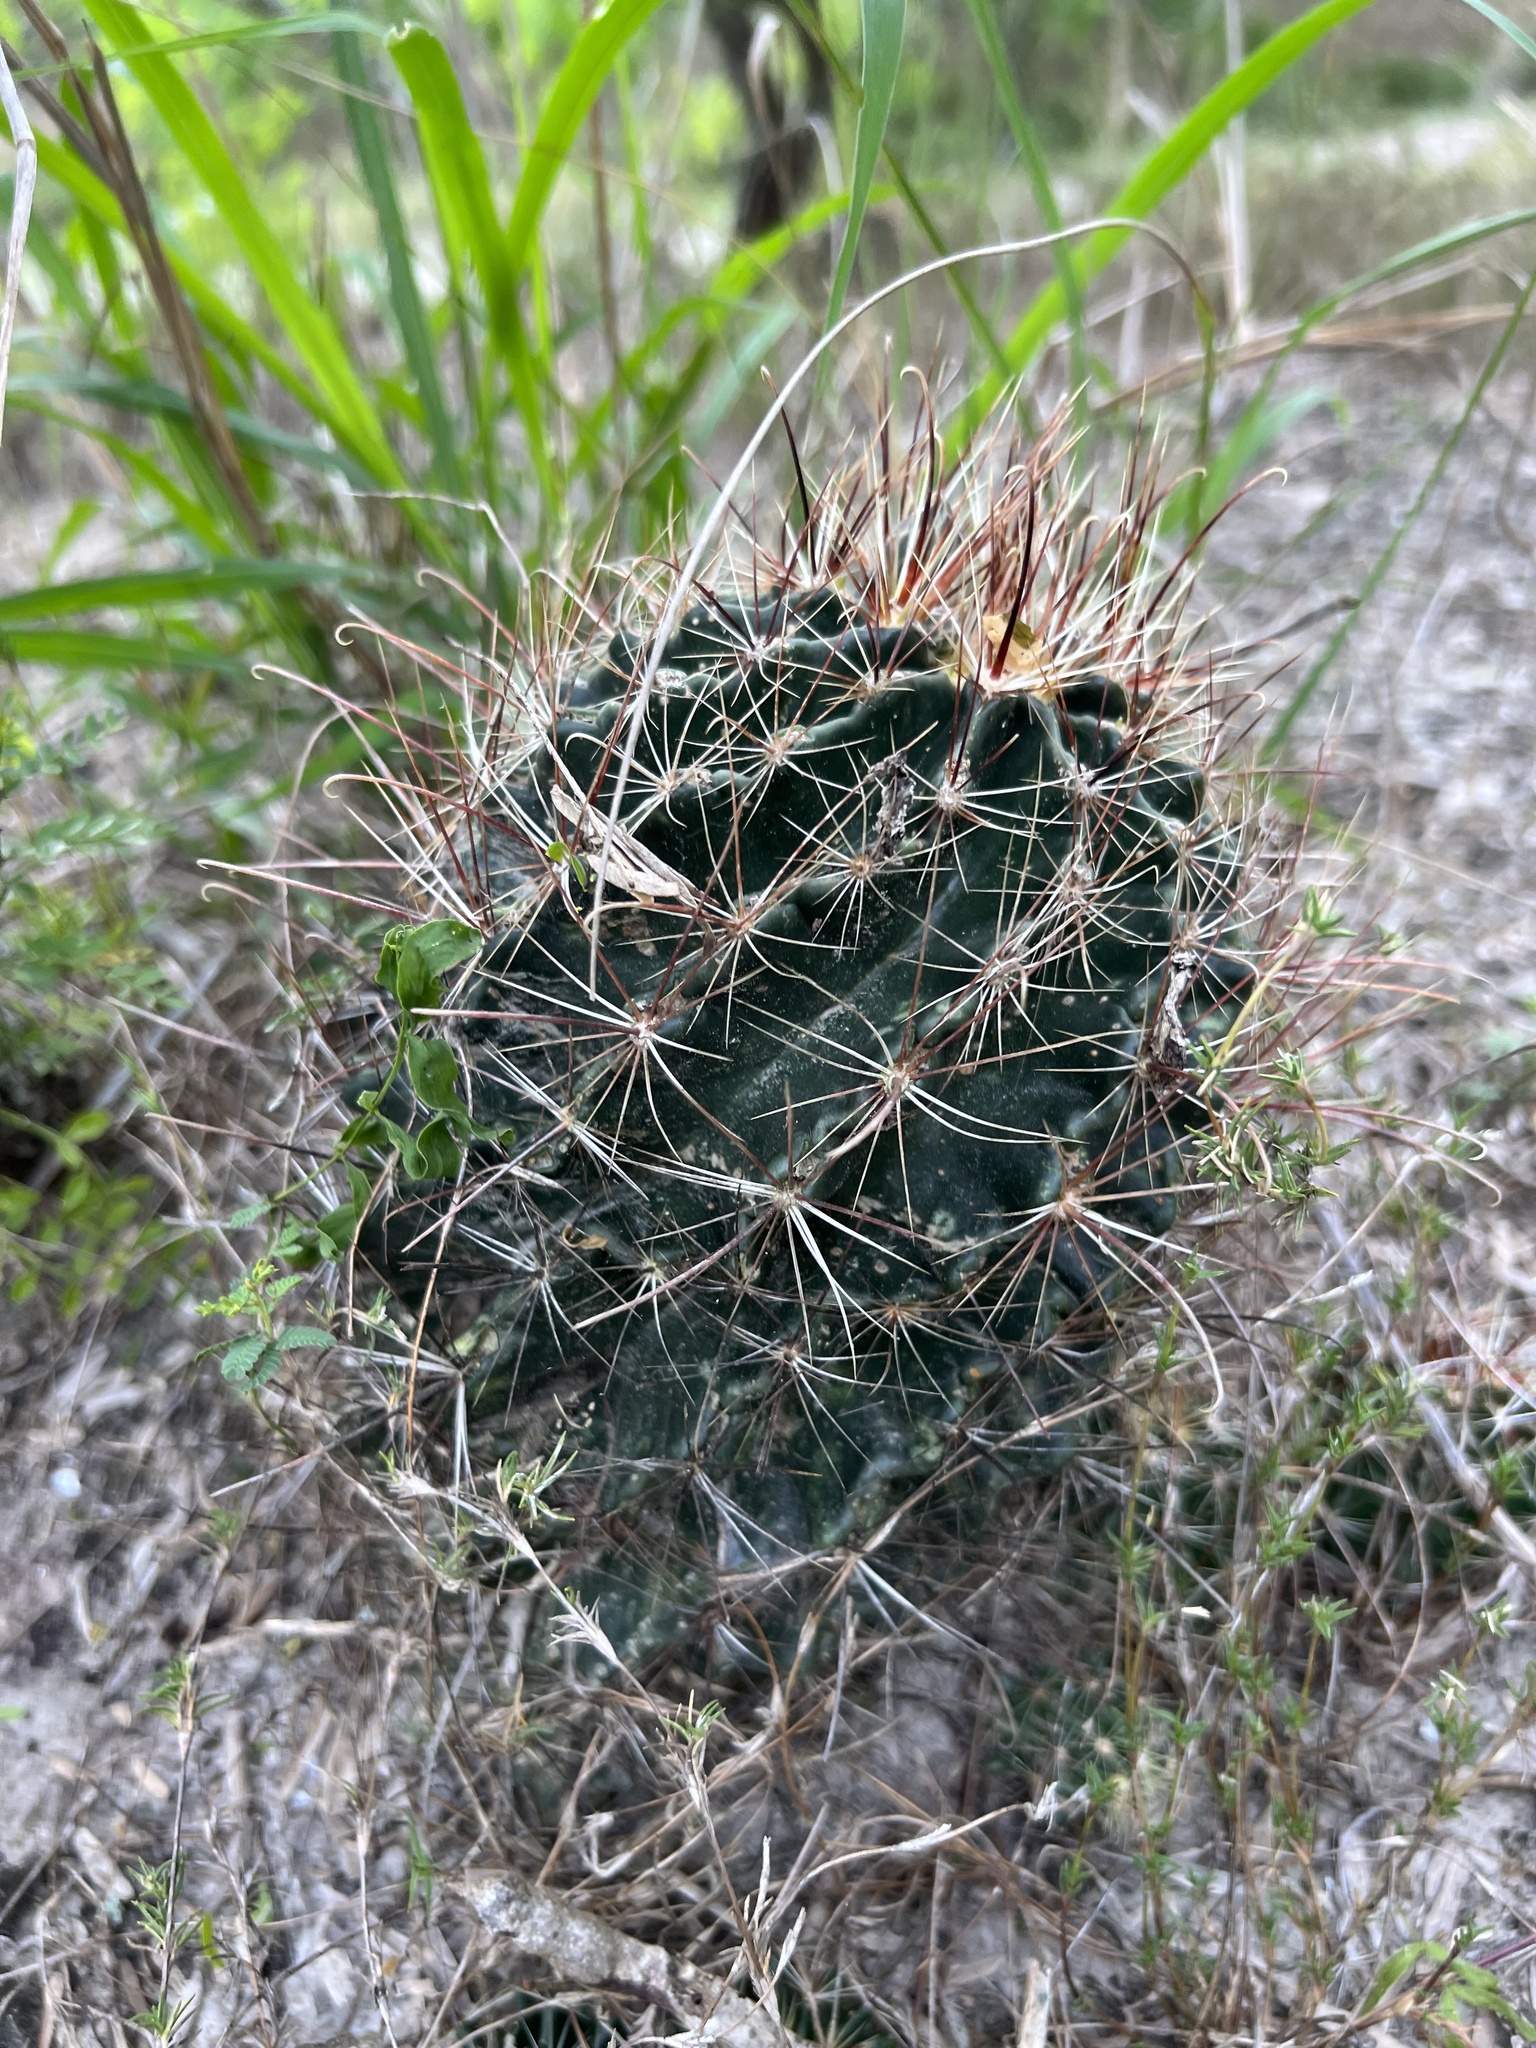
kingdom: Plantae
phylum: Tracheophyta
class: Magnoliopsida
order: Caryophyllales
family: Cactaceae
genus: Thelocactus
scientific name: Thelocactus setispinus
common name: Miniature barrel cactus
